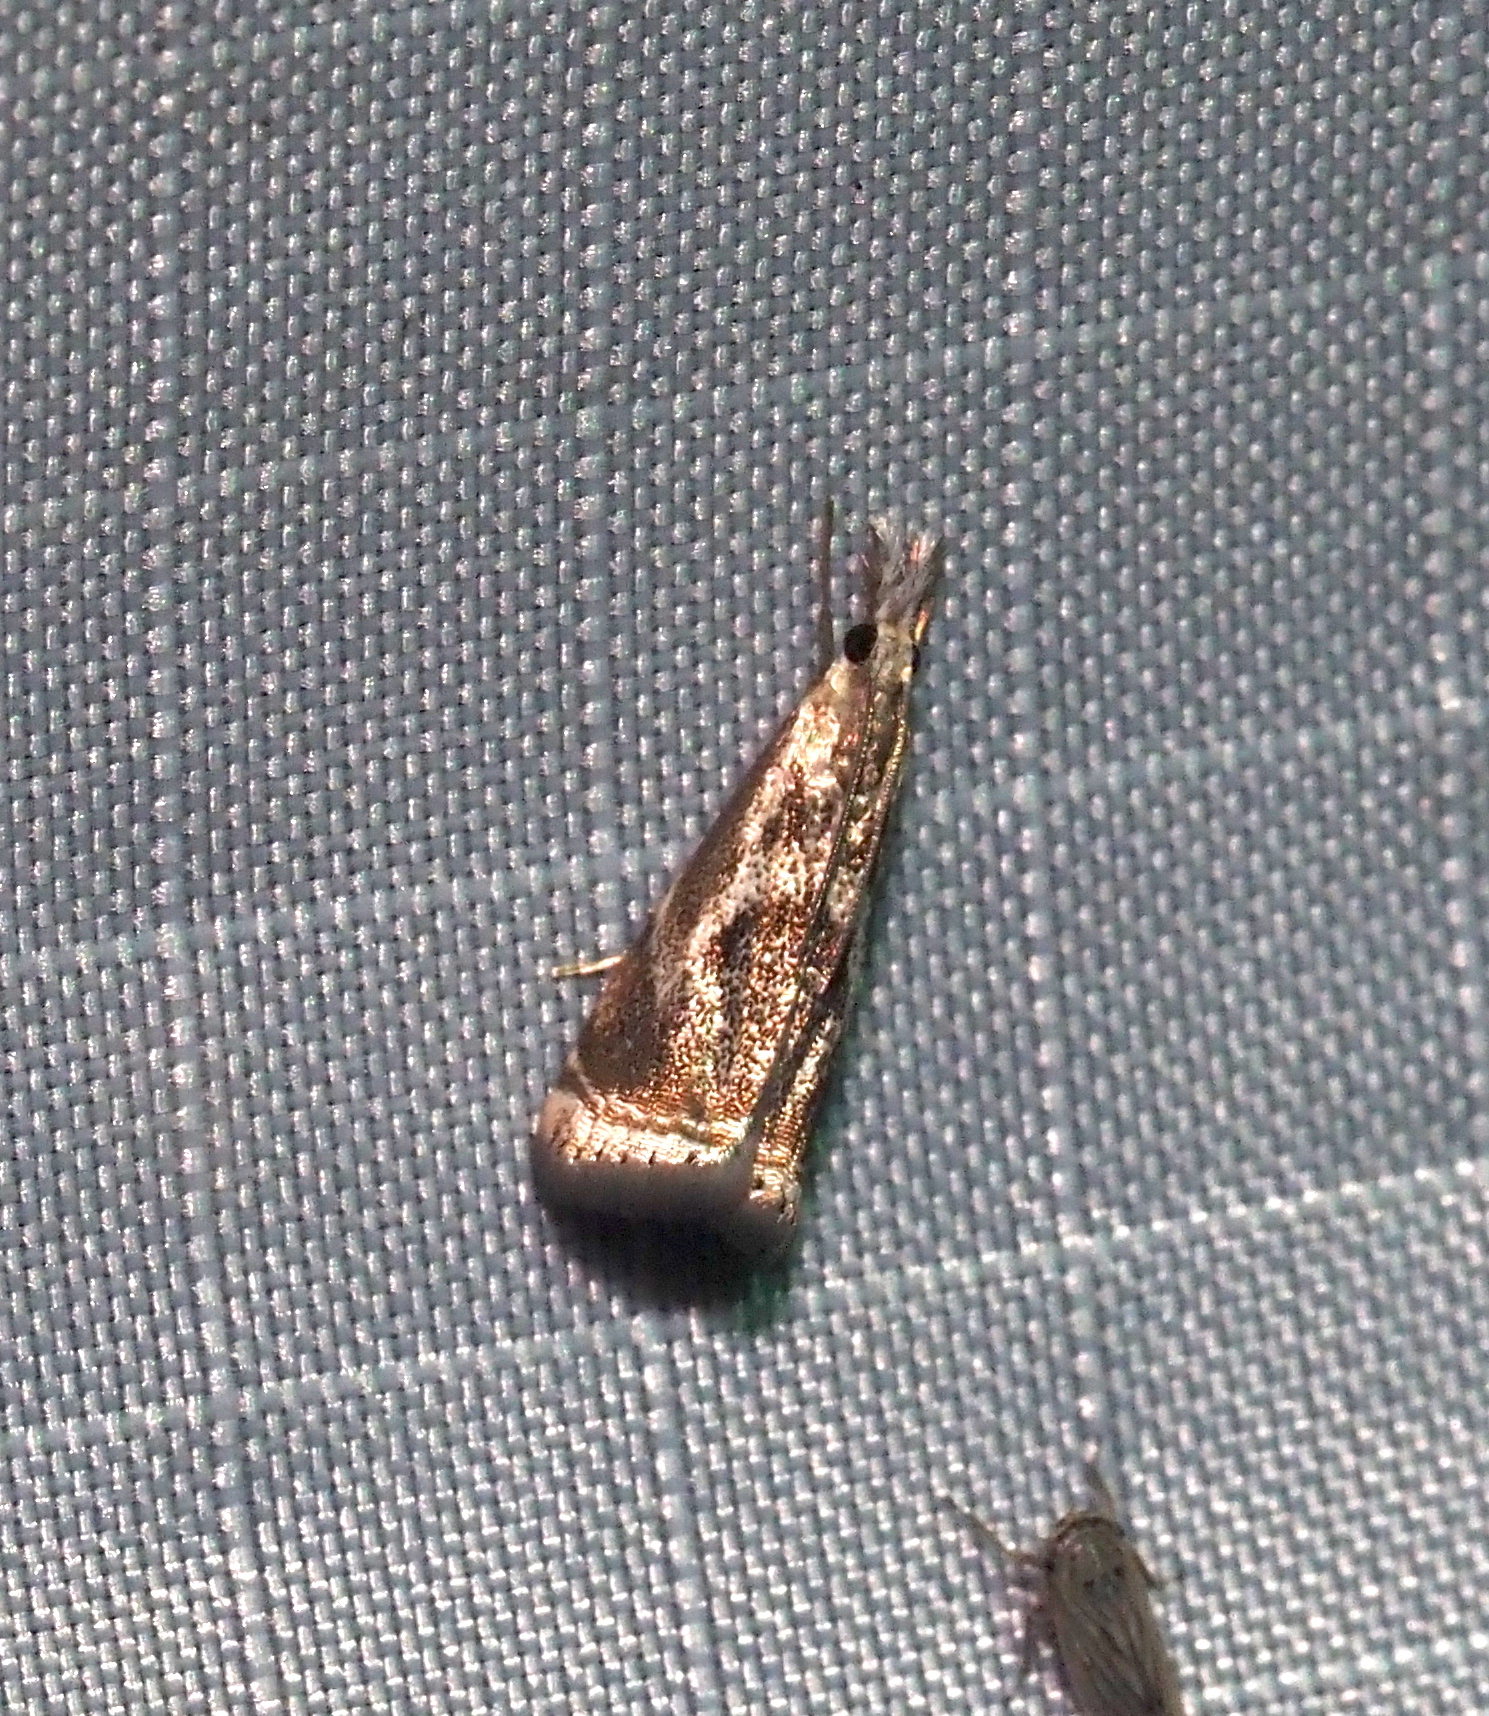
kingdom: Animalia
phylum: Arthropoda
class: Insecta
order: Lepidoptera
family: Crambidae
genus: Microcrambus
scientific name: Microcrambus elegans
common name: Elegant grass-veneer
